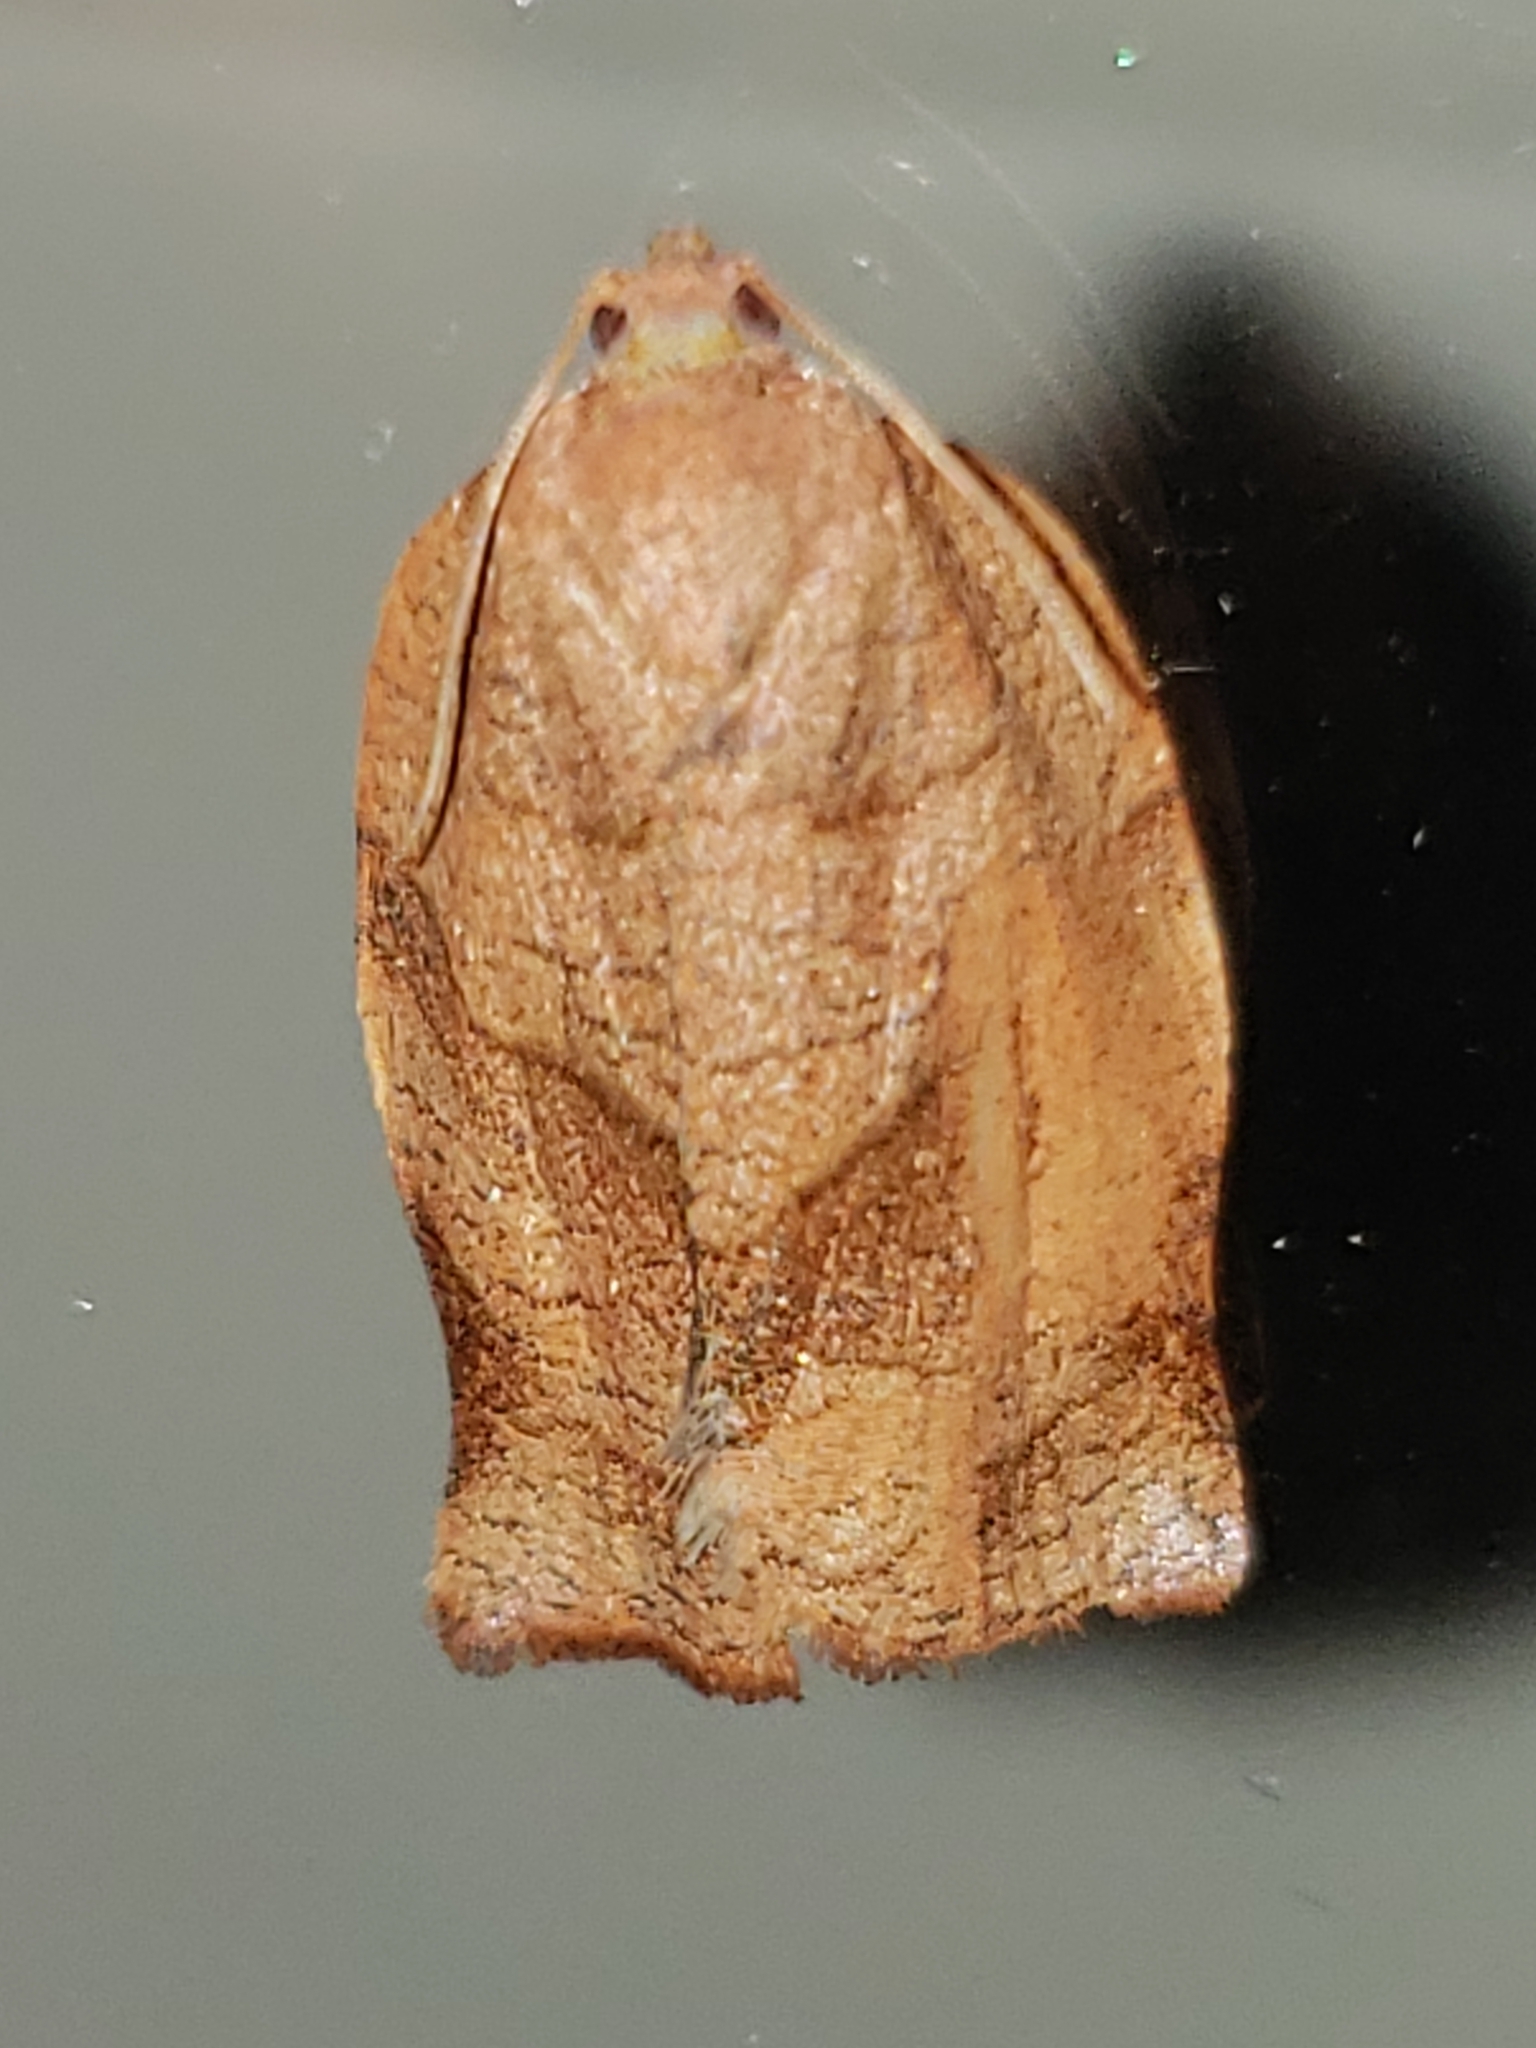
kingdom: Animalia
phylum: Arthropoda
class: Insecta
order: Lepidoptera
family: Tortricidae
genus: Choristoneura
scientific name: Choristoneura rosaceana
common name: Oblique-banded leafroller moth
